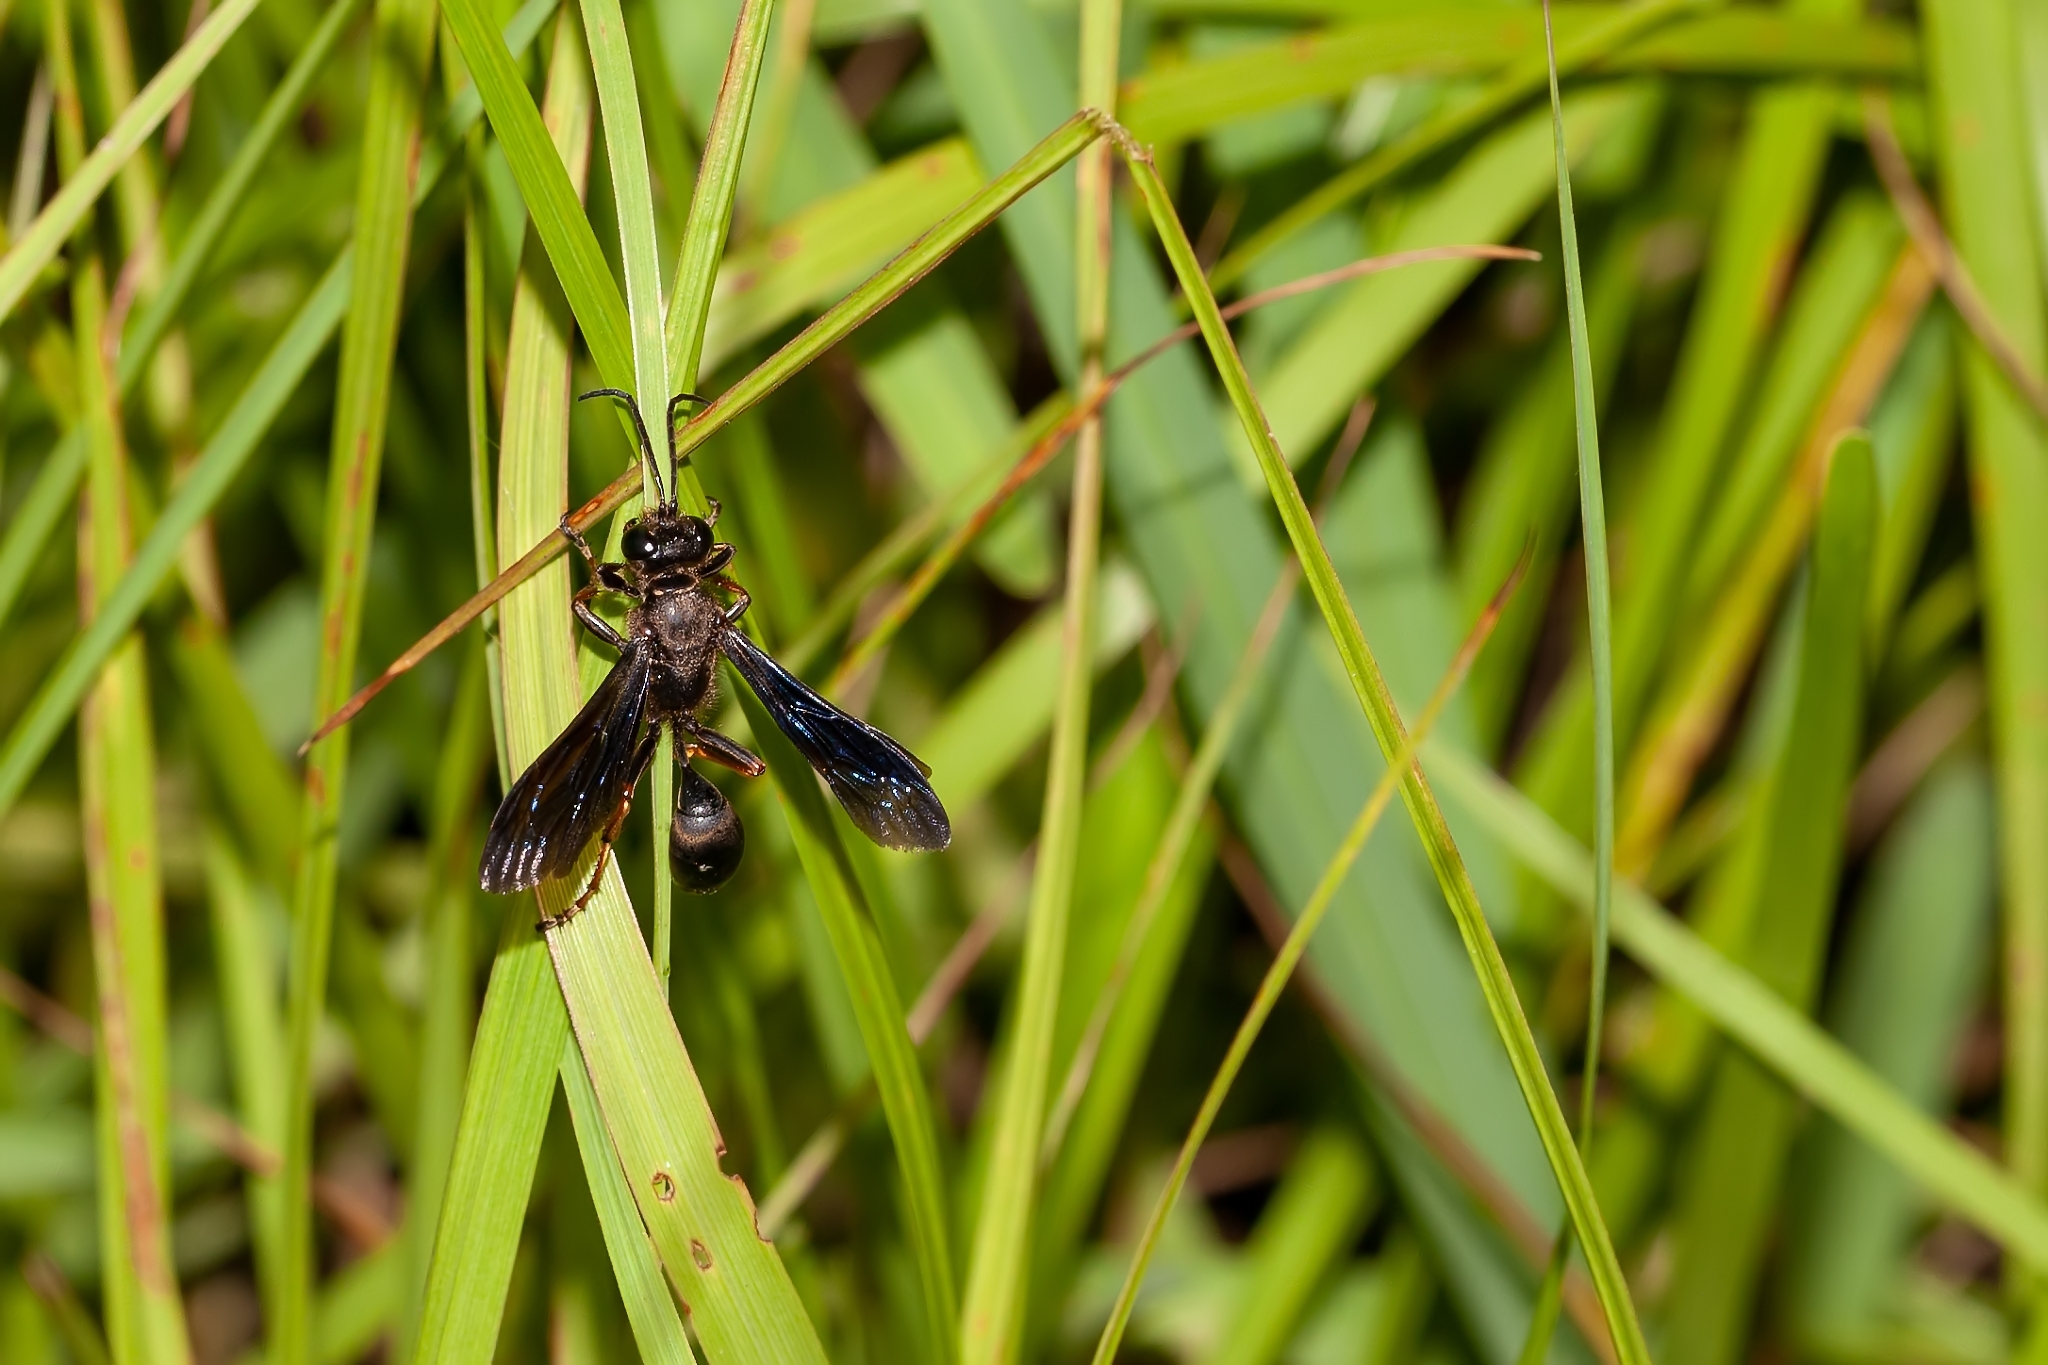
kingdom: Animalia
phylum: Arthropoda
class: Insecta
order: Hymenoptera
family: Sphecidae
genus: Isodontia
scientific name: Isodontia auripes
